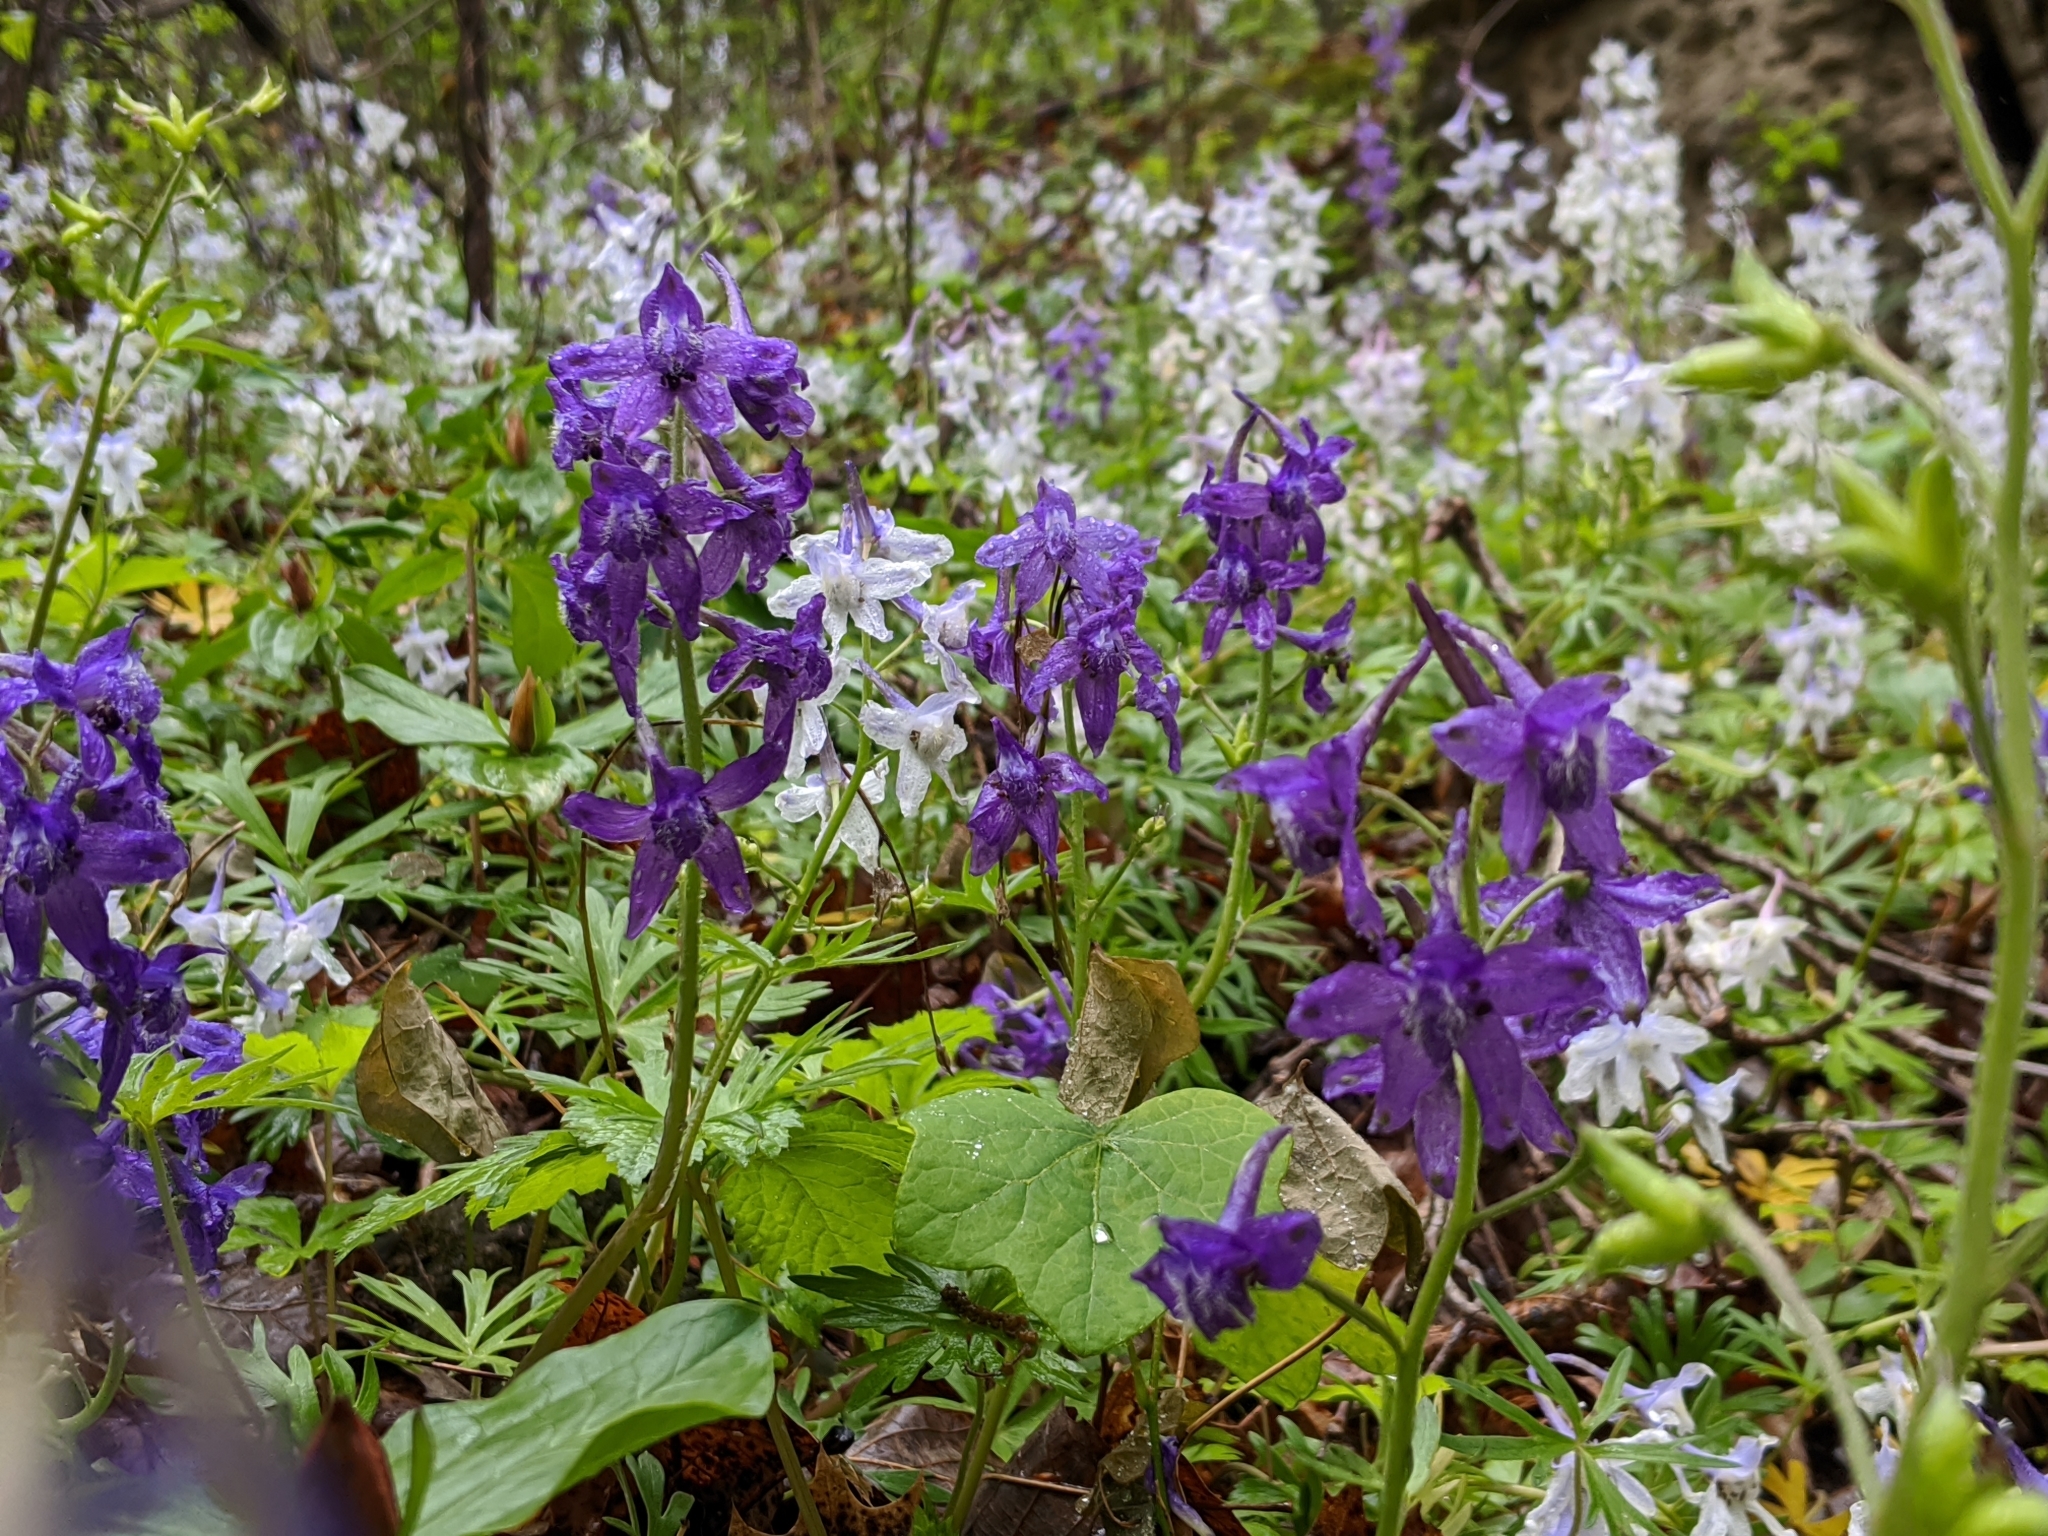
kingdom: Plantae
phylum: Tracheophyta
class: Magnoliopsida
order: Ranunculales
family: Ranunculaceae
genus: Delphinium
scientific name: Delphinium tricorne
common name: Dwarf larkspur
